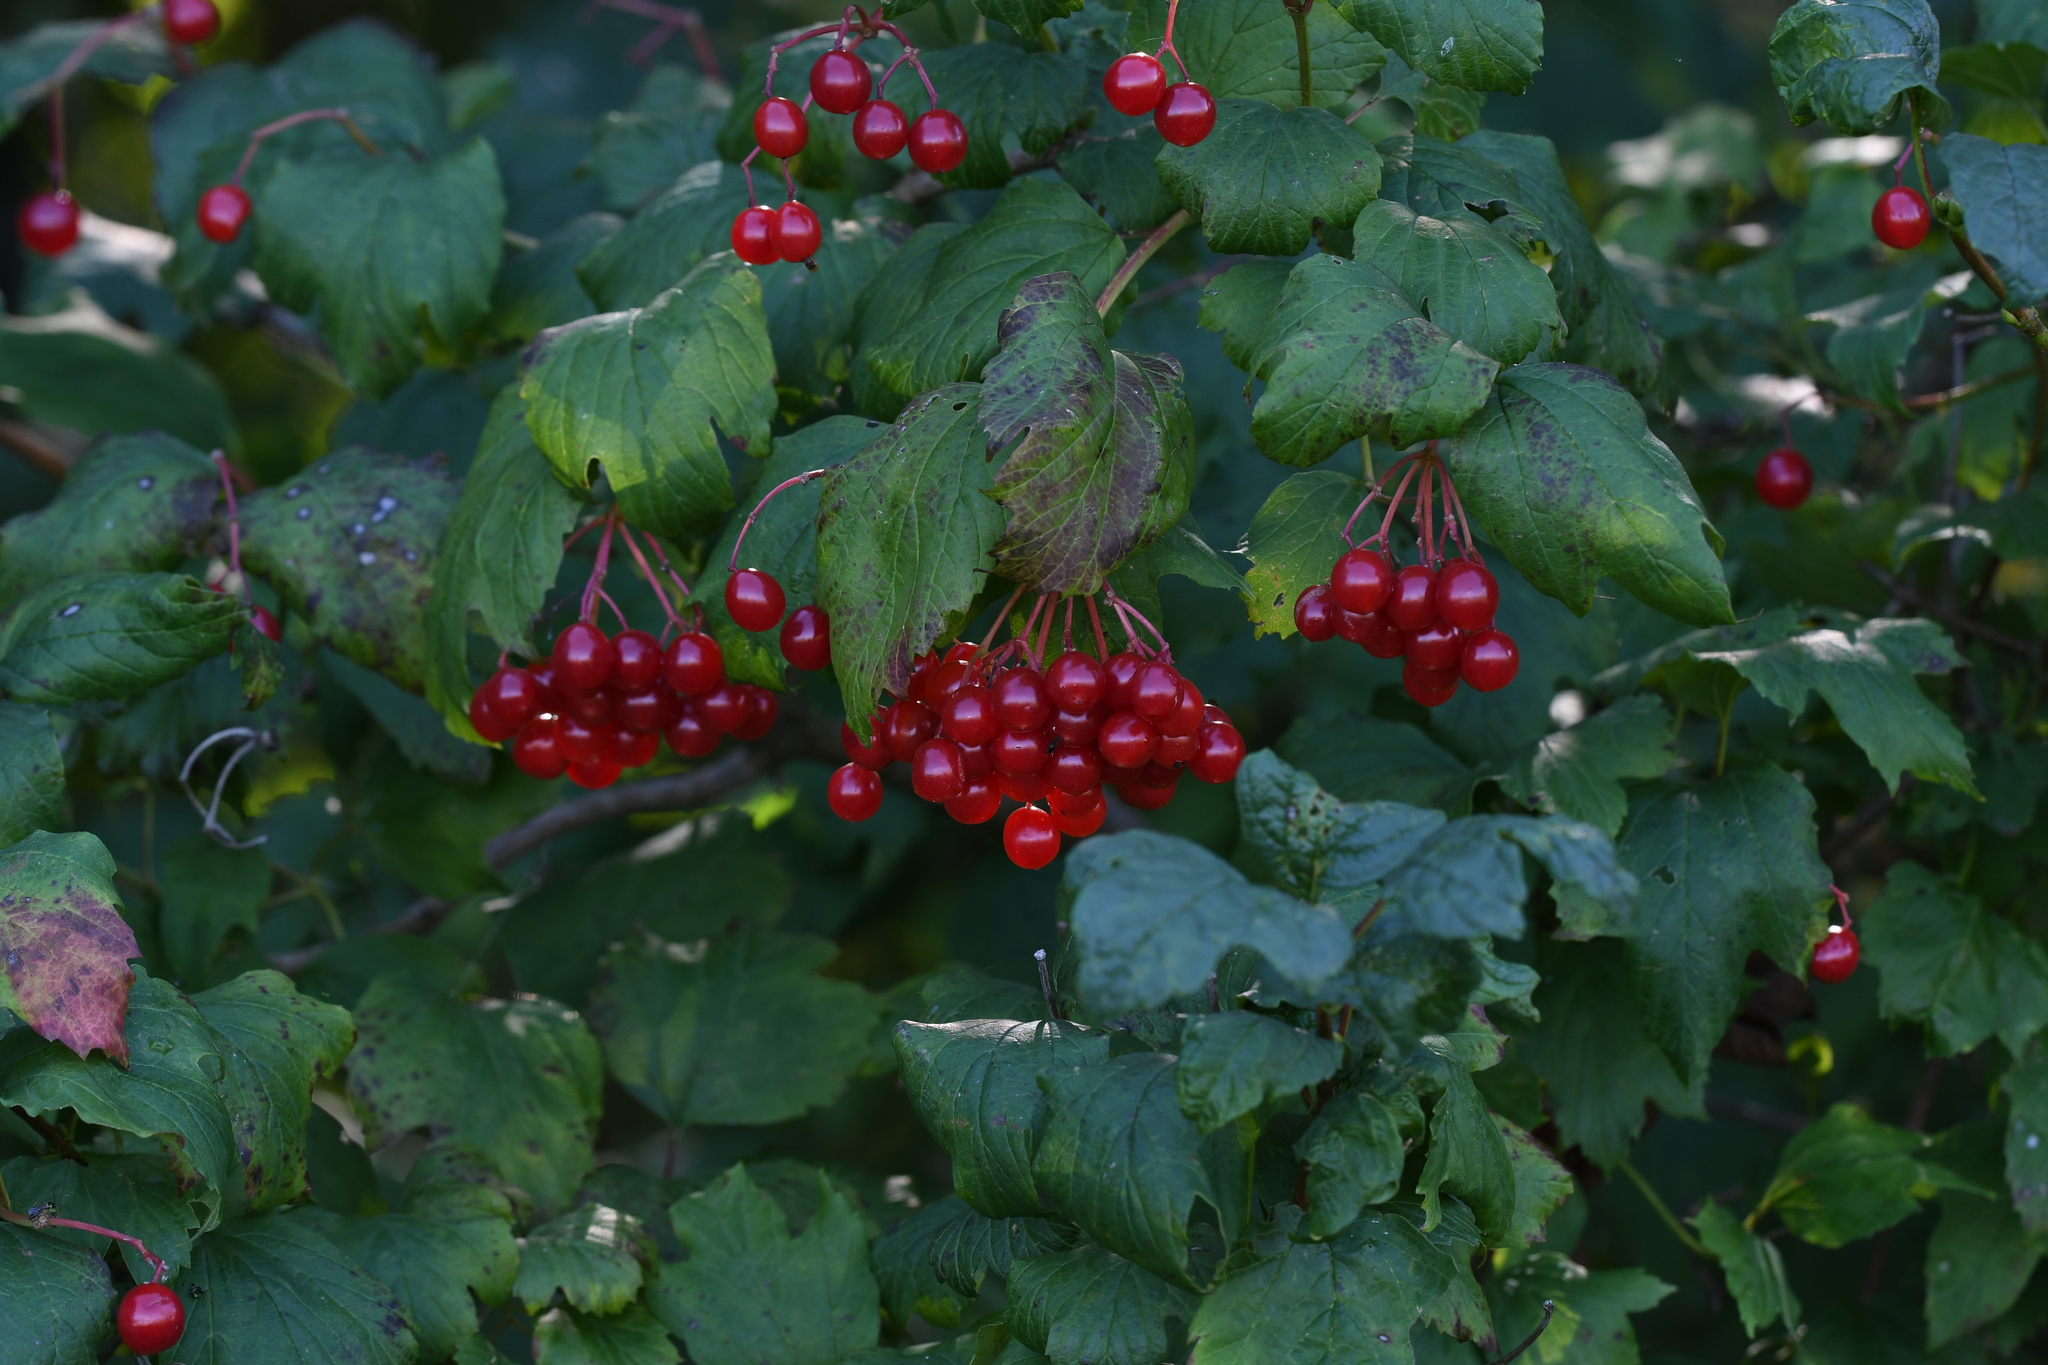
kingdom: Plantae
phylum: Tracheophyta
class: Magnoliopsida
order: Dipsacales
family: Viburnaceae
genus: Viburnum
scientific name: Viburnum opulus
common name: Guelder-rose
